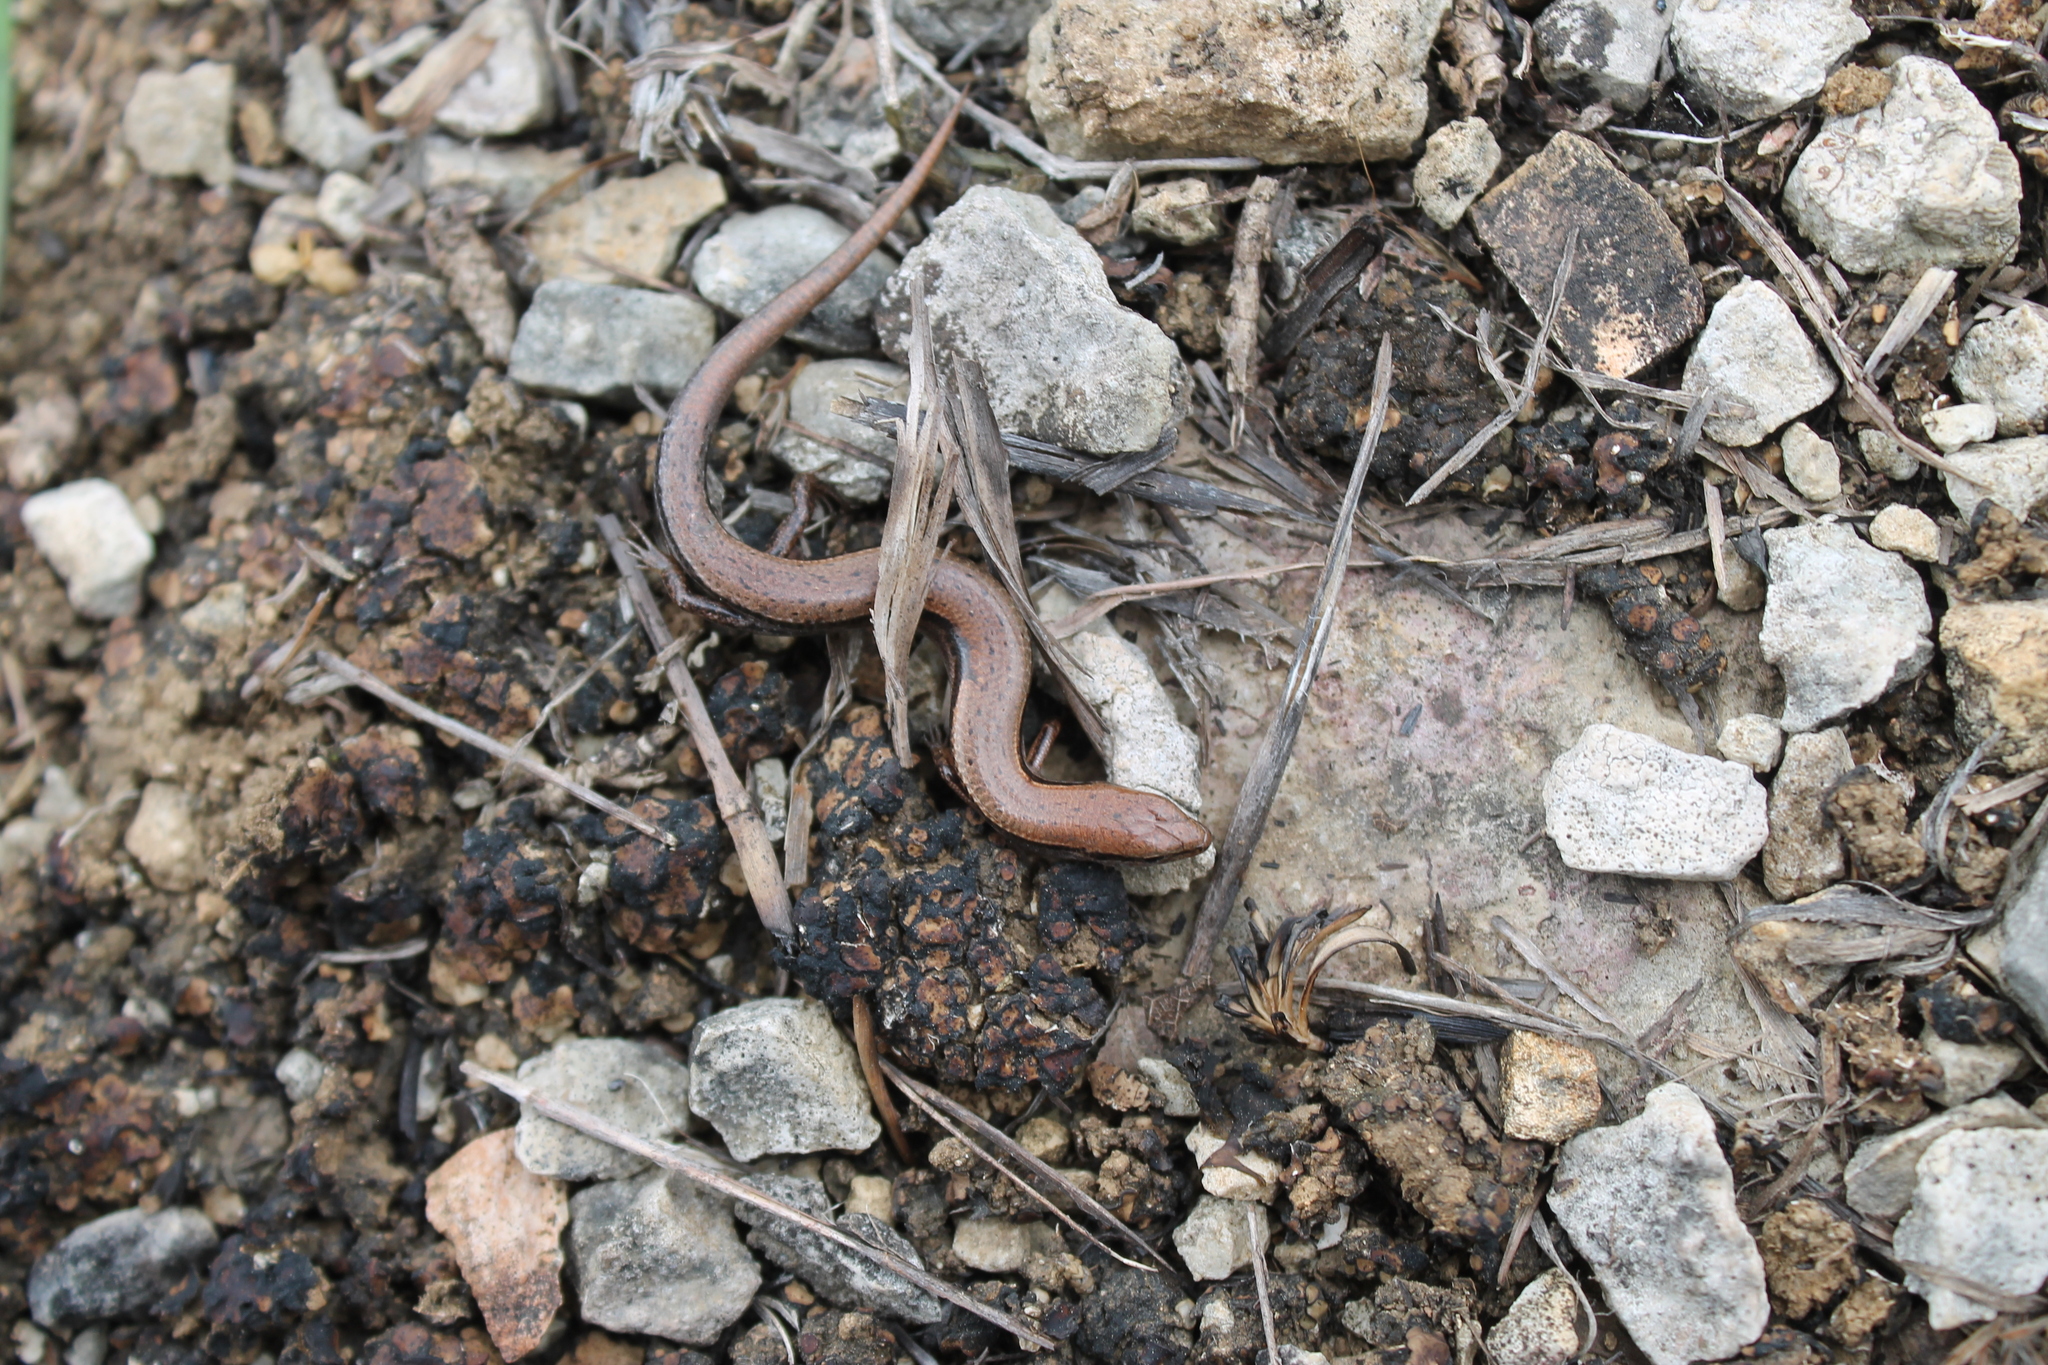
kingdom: Animalia
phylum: Chordata
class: Squamata
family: Scincidae
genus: Scincella
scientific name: Scincella lateralis
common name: Ground skink
